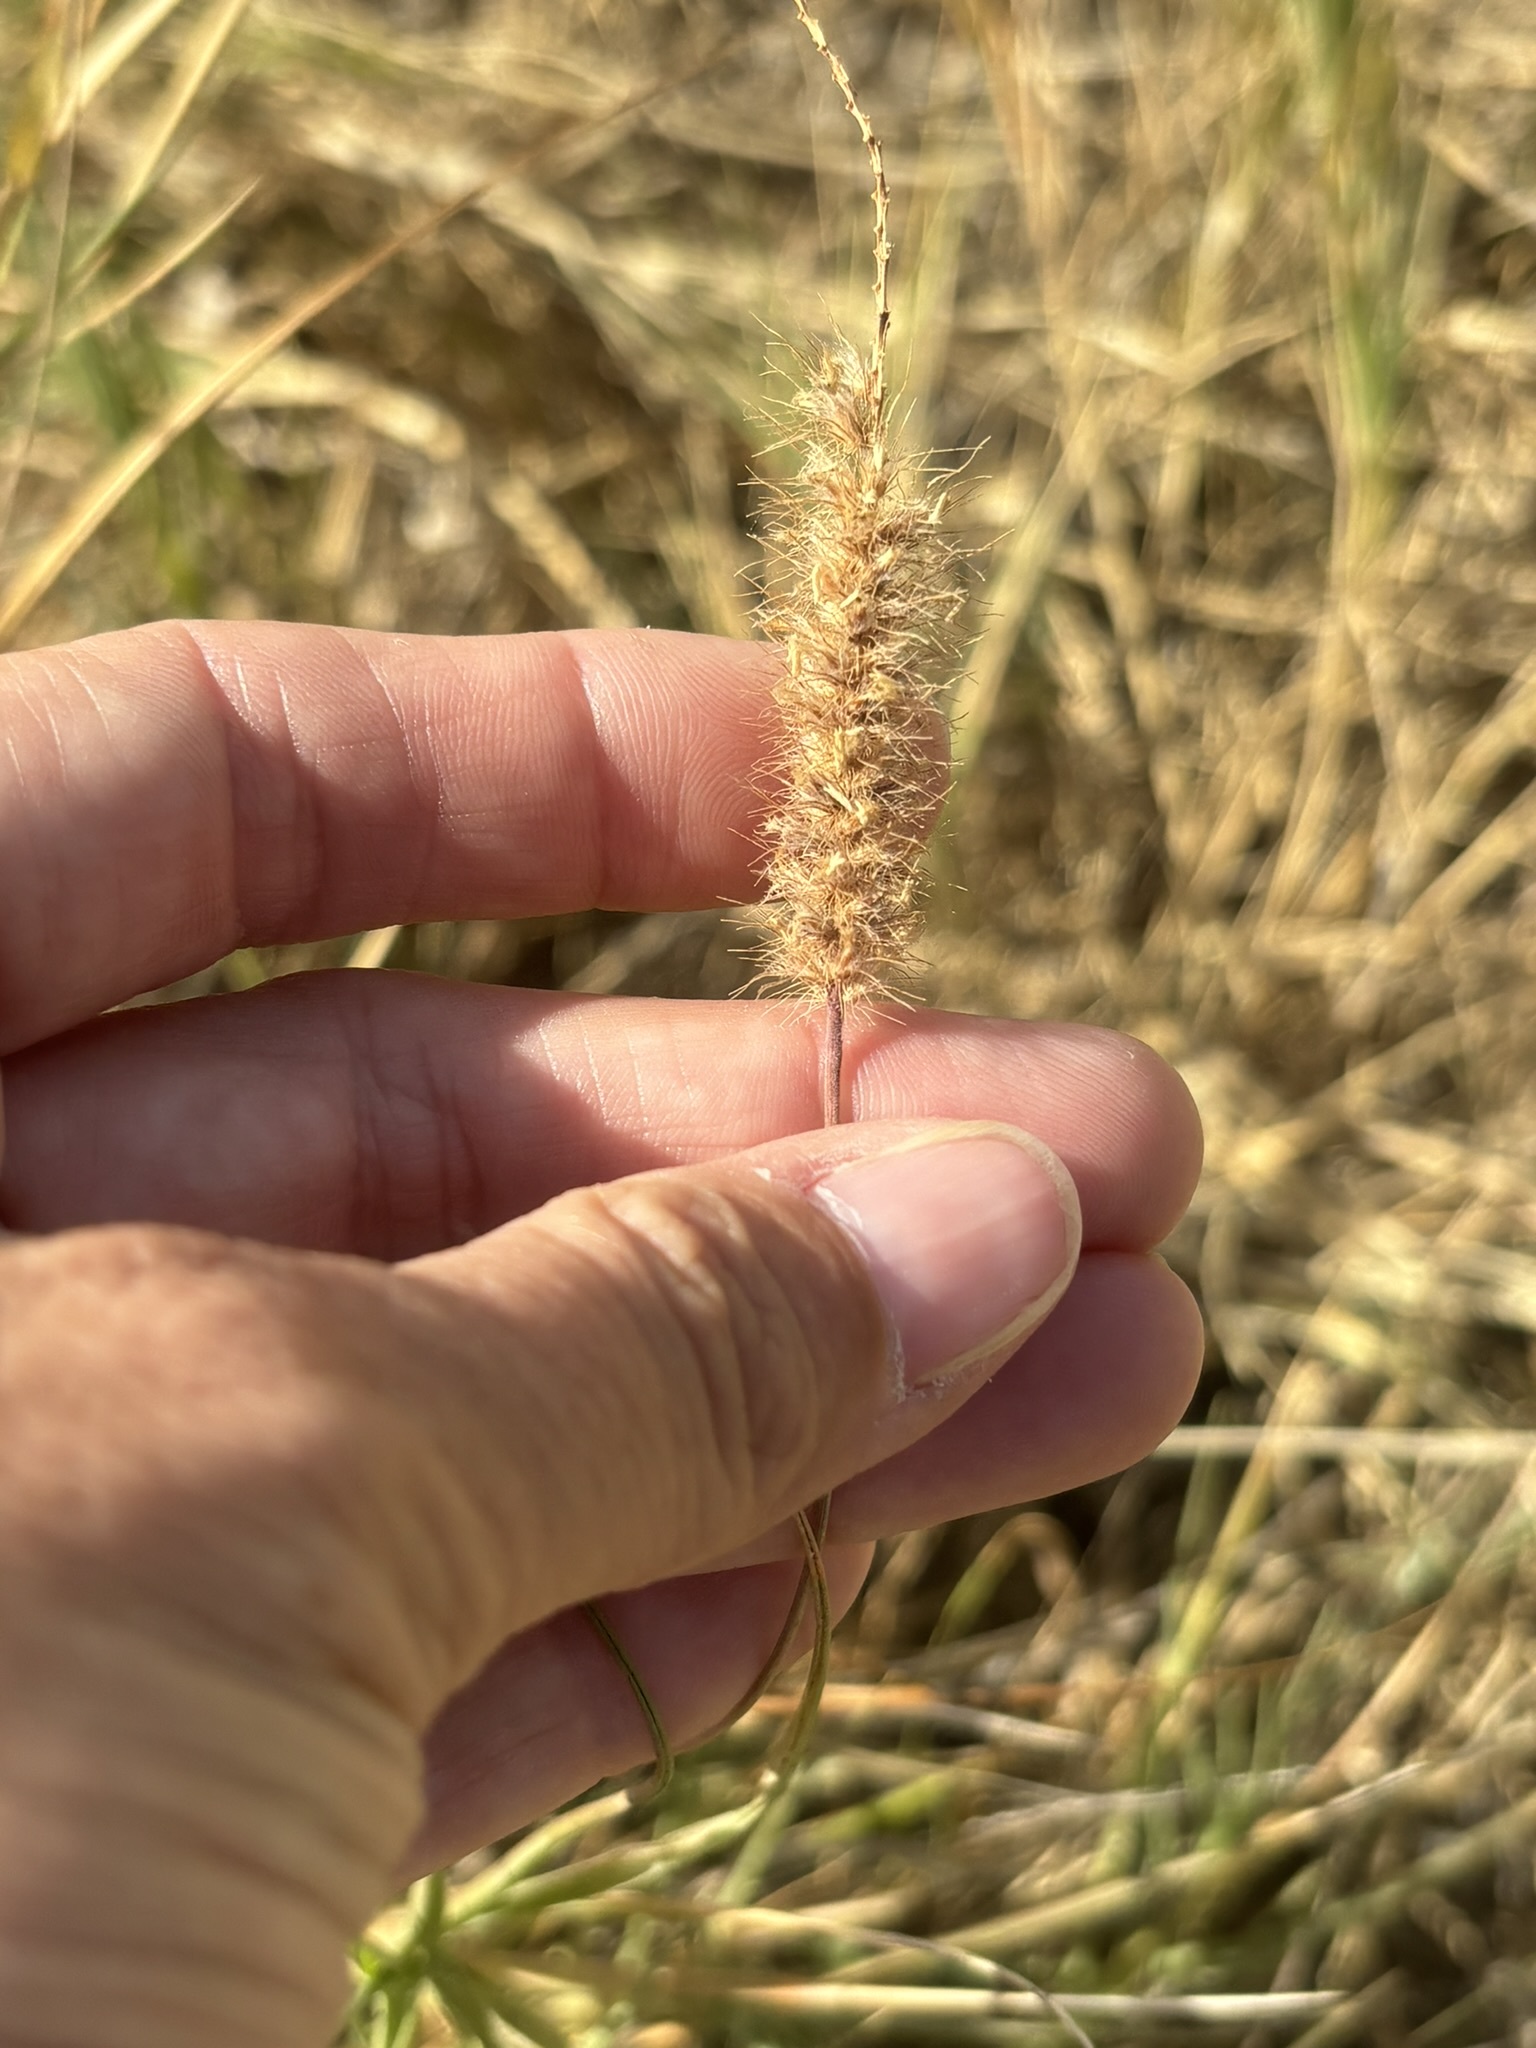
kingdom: Plantae
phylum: Tracheophyta
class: Liliopsida
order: Poales
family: Poaceae
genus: Cenchrus
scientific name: Cenchrus ciliaris
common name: Buffelgrass
